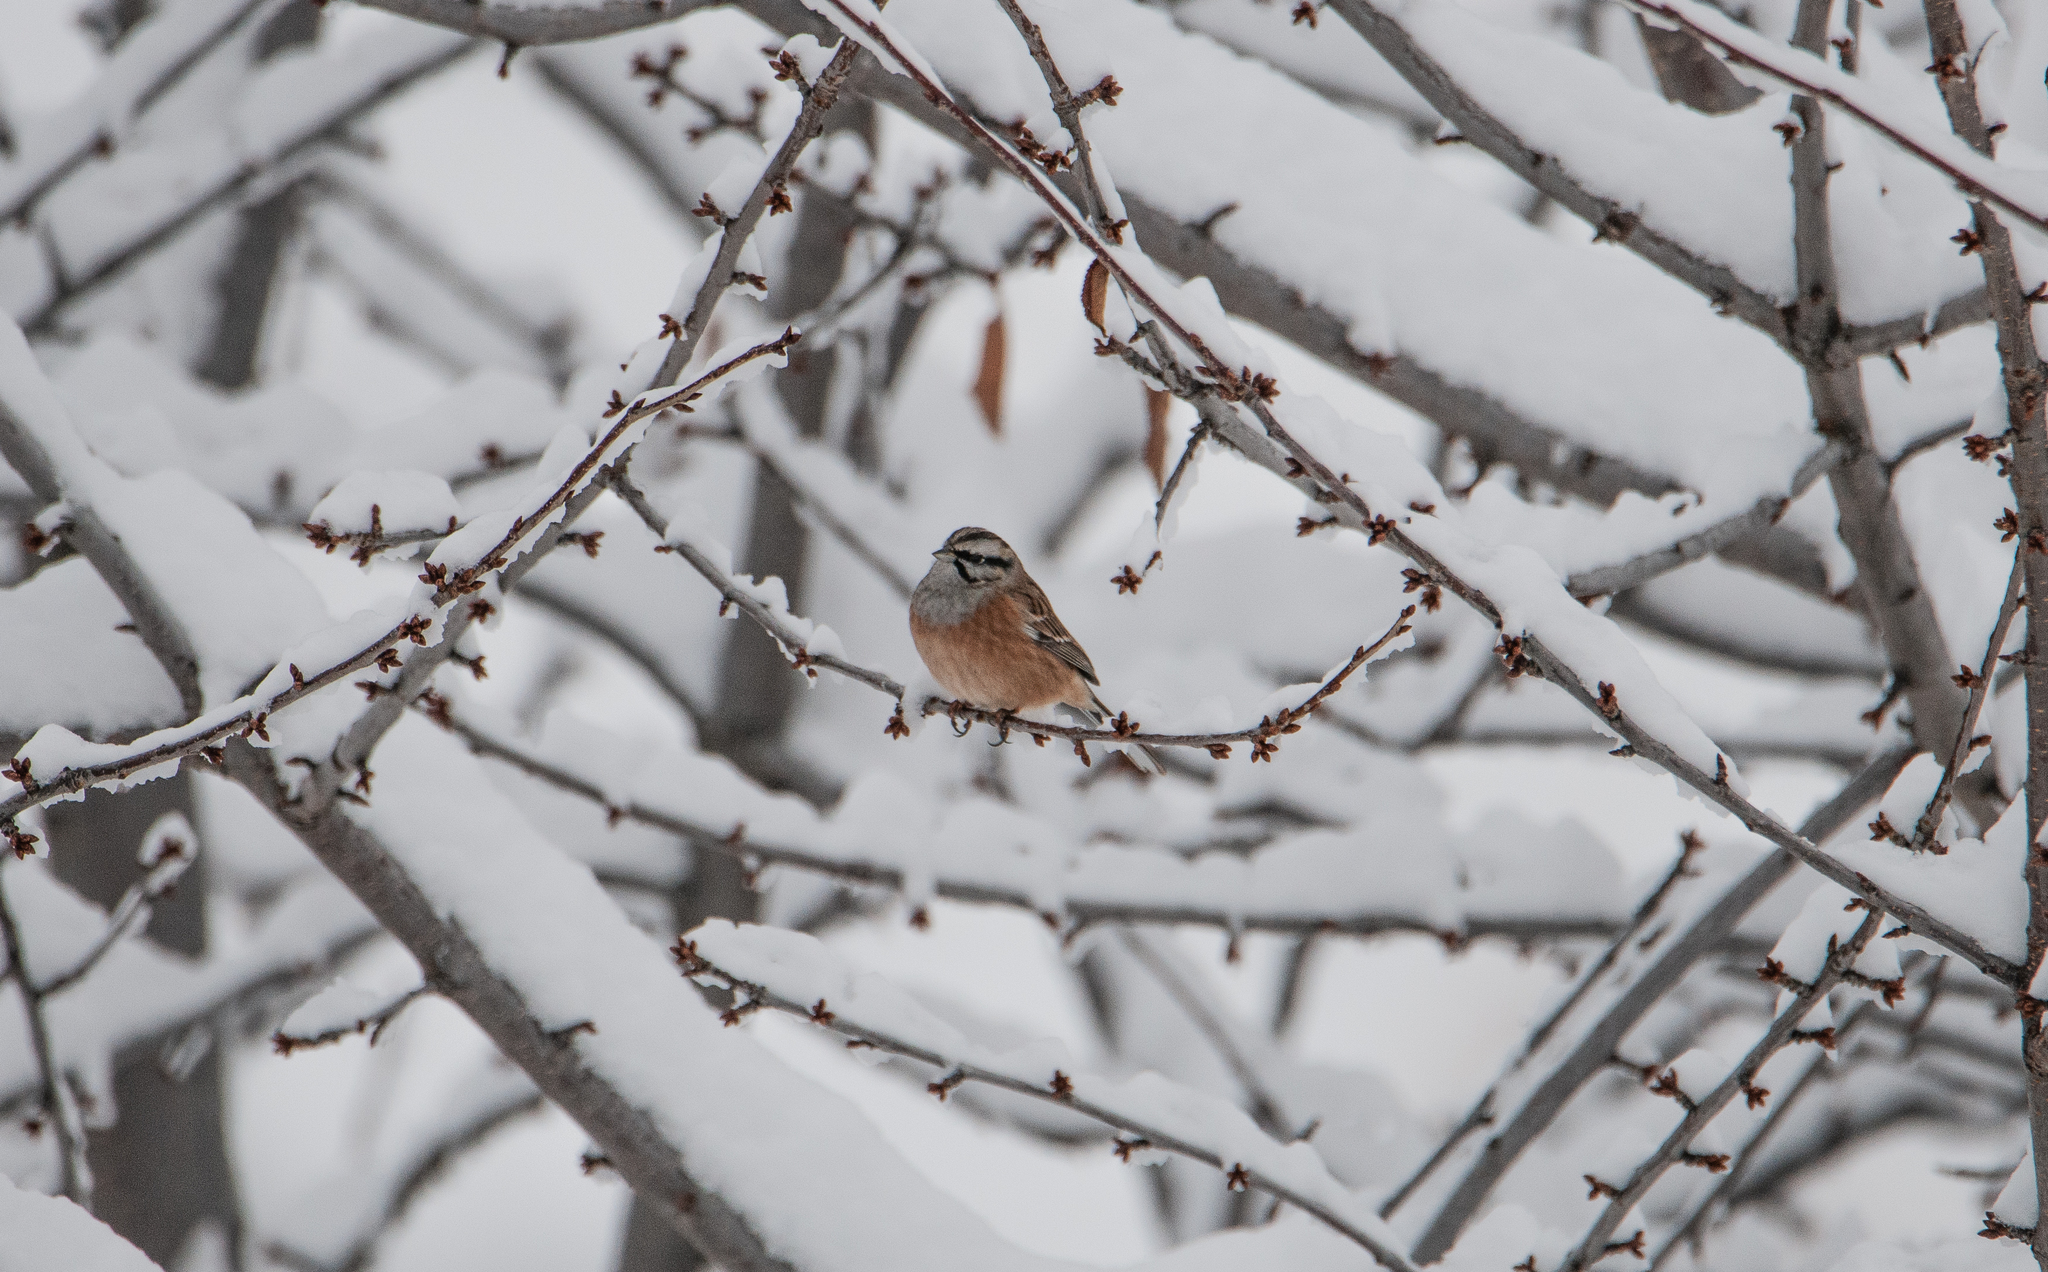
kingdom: Animalia
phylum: Chordata
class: Aves
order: Passeriformes
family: Emberizidae
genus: Emberiza
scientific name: Emberiza cia
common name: Rock bunting
